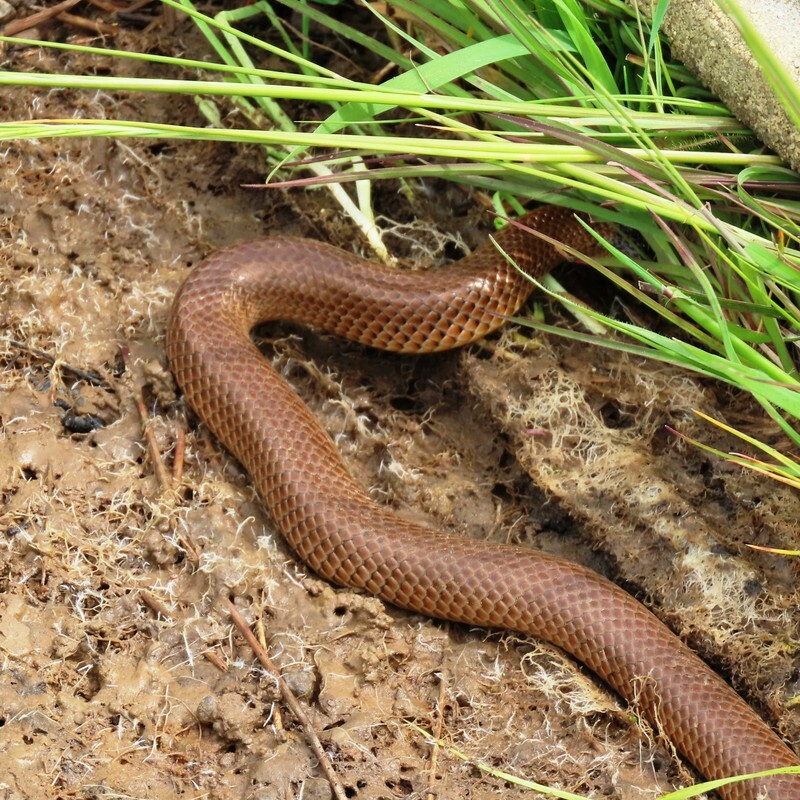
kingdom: Animalia
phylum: Chordata
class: Squamata
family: Elapidae
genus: Suta
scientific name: Suta flagellum
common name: Little whip snake
